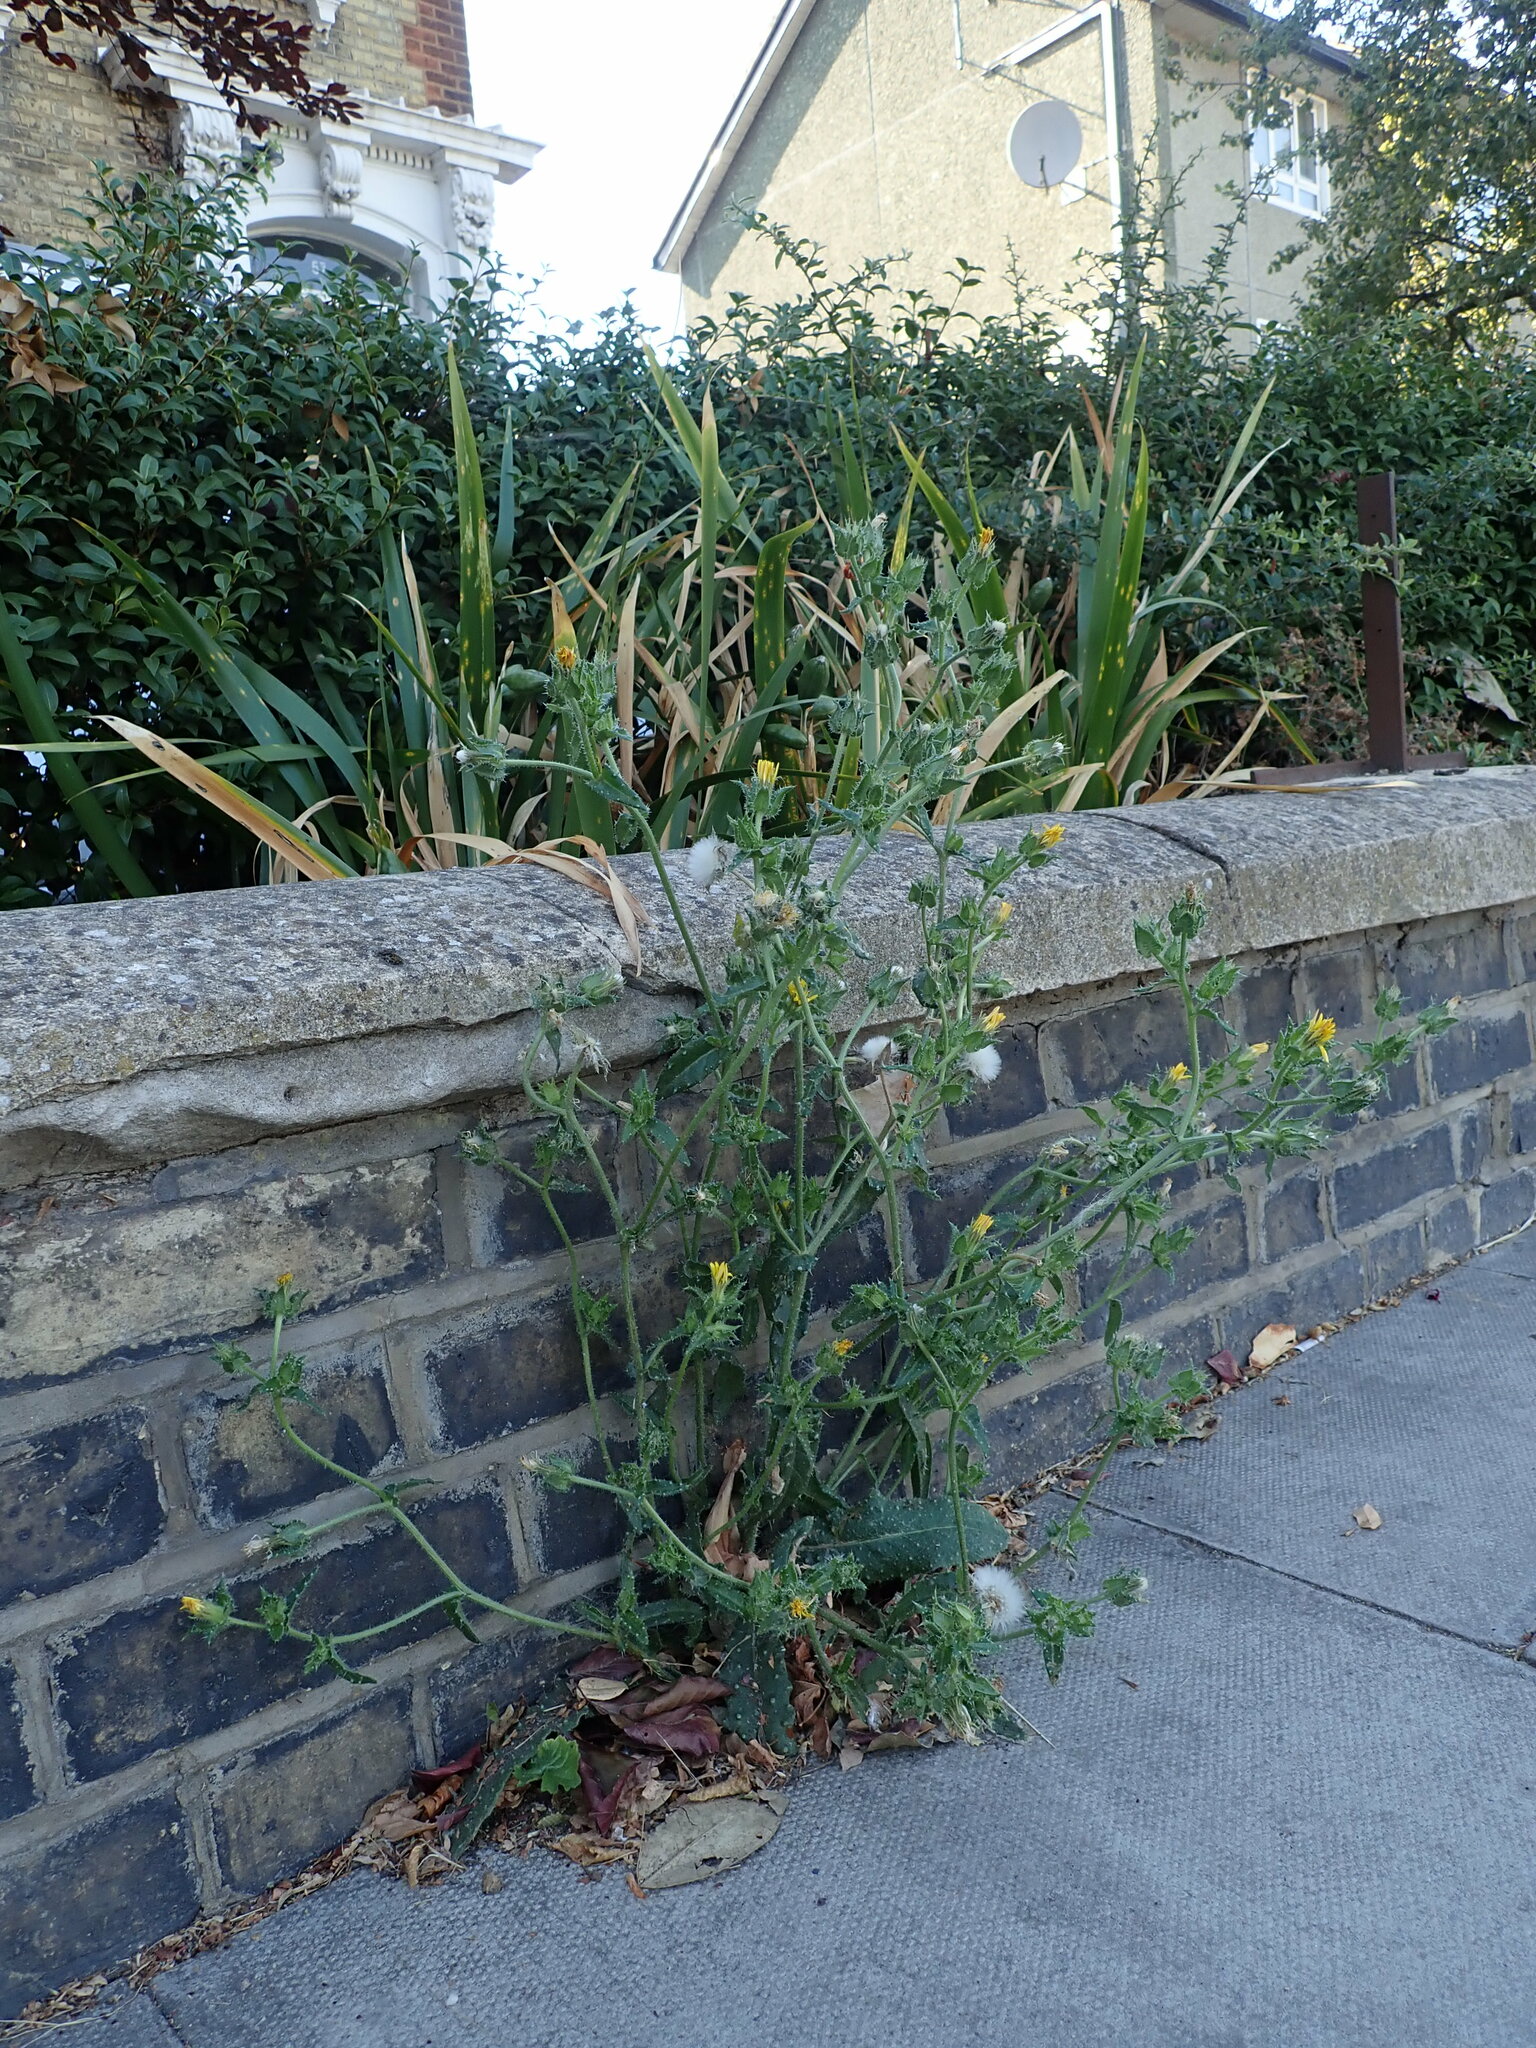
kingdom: Plantae
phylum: Tracheophyta
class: Magnoliopsida
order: Asterales
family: Asteraceae
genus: Helminthotheca
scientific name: Helminthotheca echioides
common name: Ox-tongue
